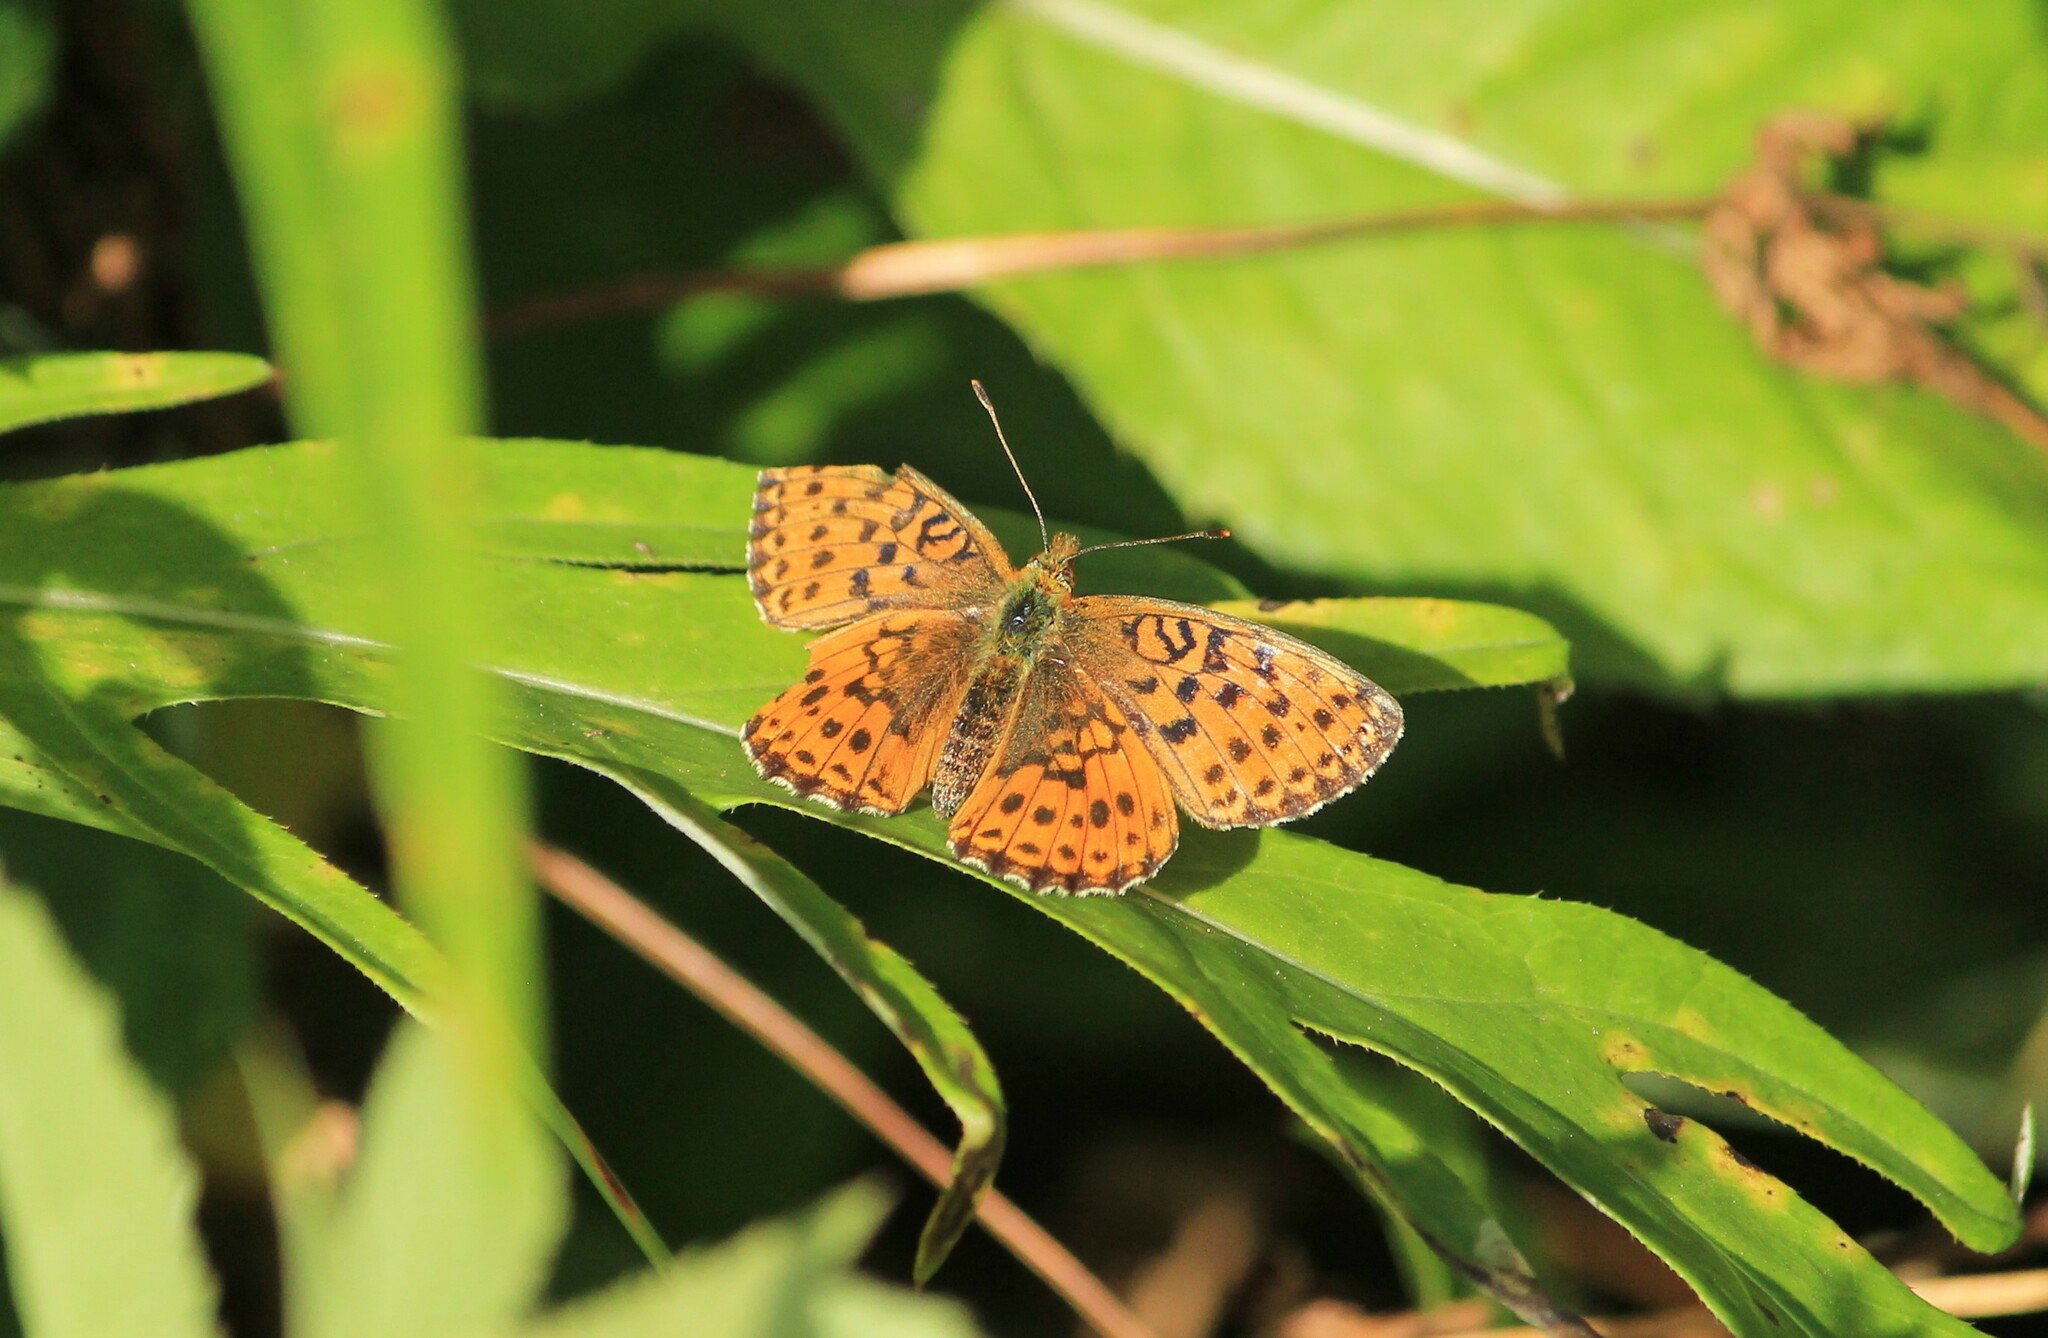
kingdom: Animalia
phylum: Arthropoda
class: Insecta
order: Lepidoptera
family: Nymphalidae
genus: Brenthis
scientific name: Brenthis ino
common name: Lesser marbled fritillary
